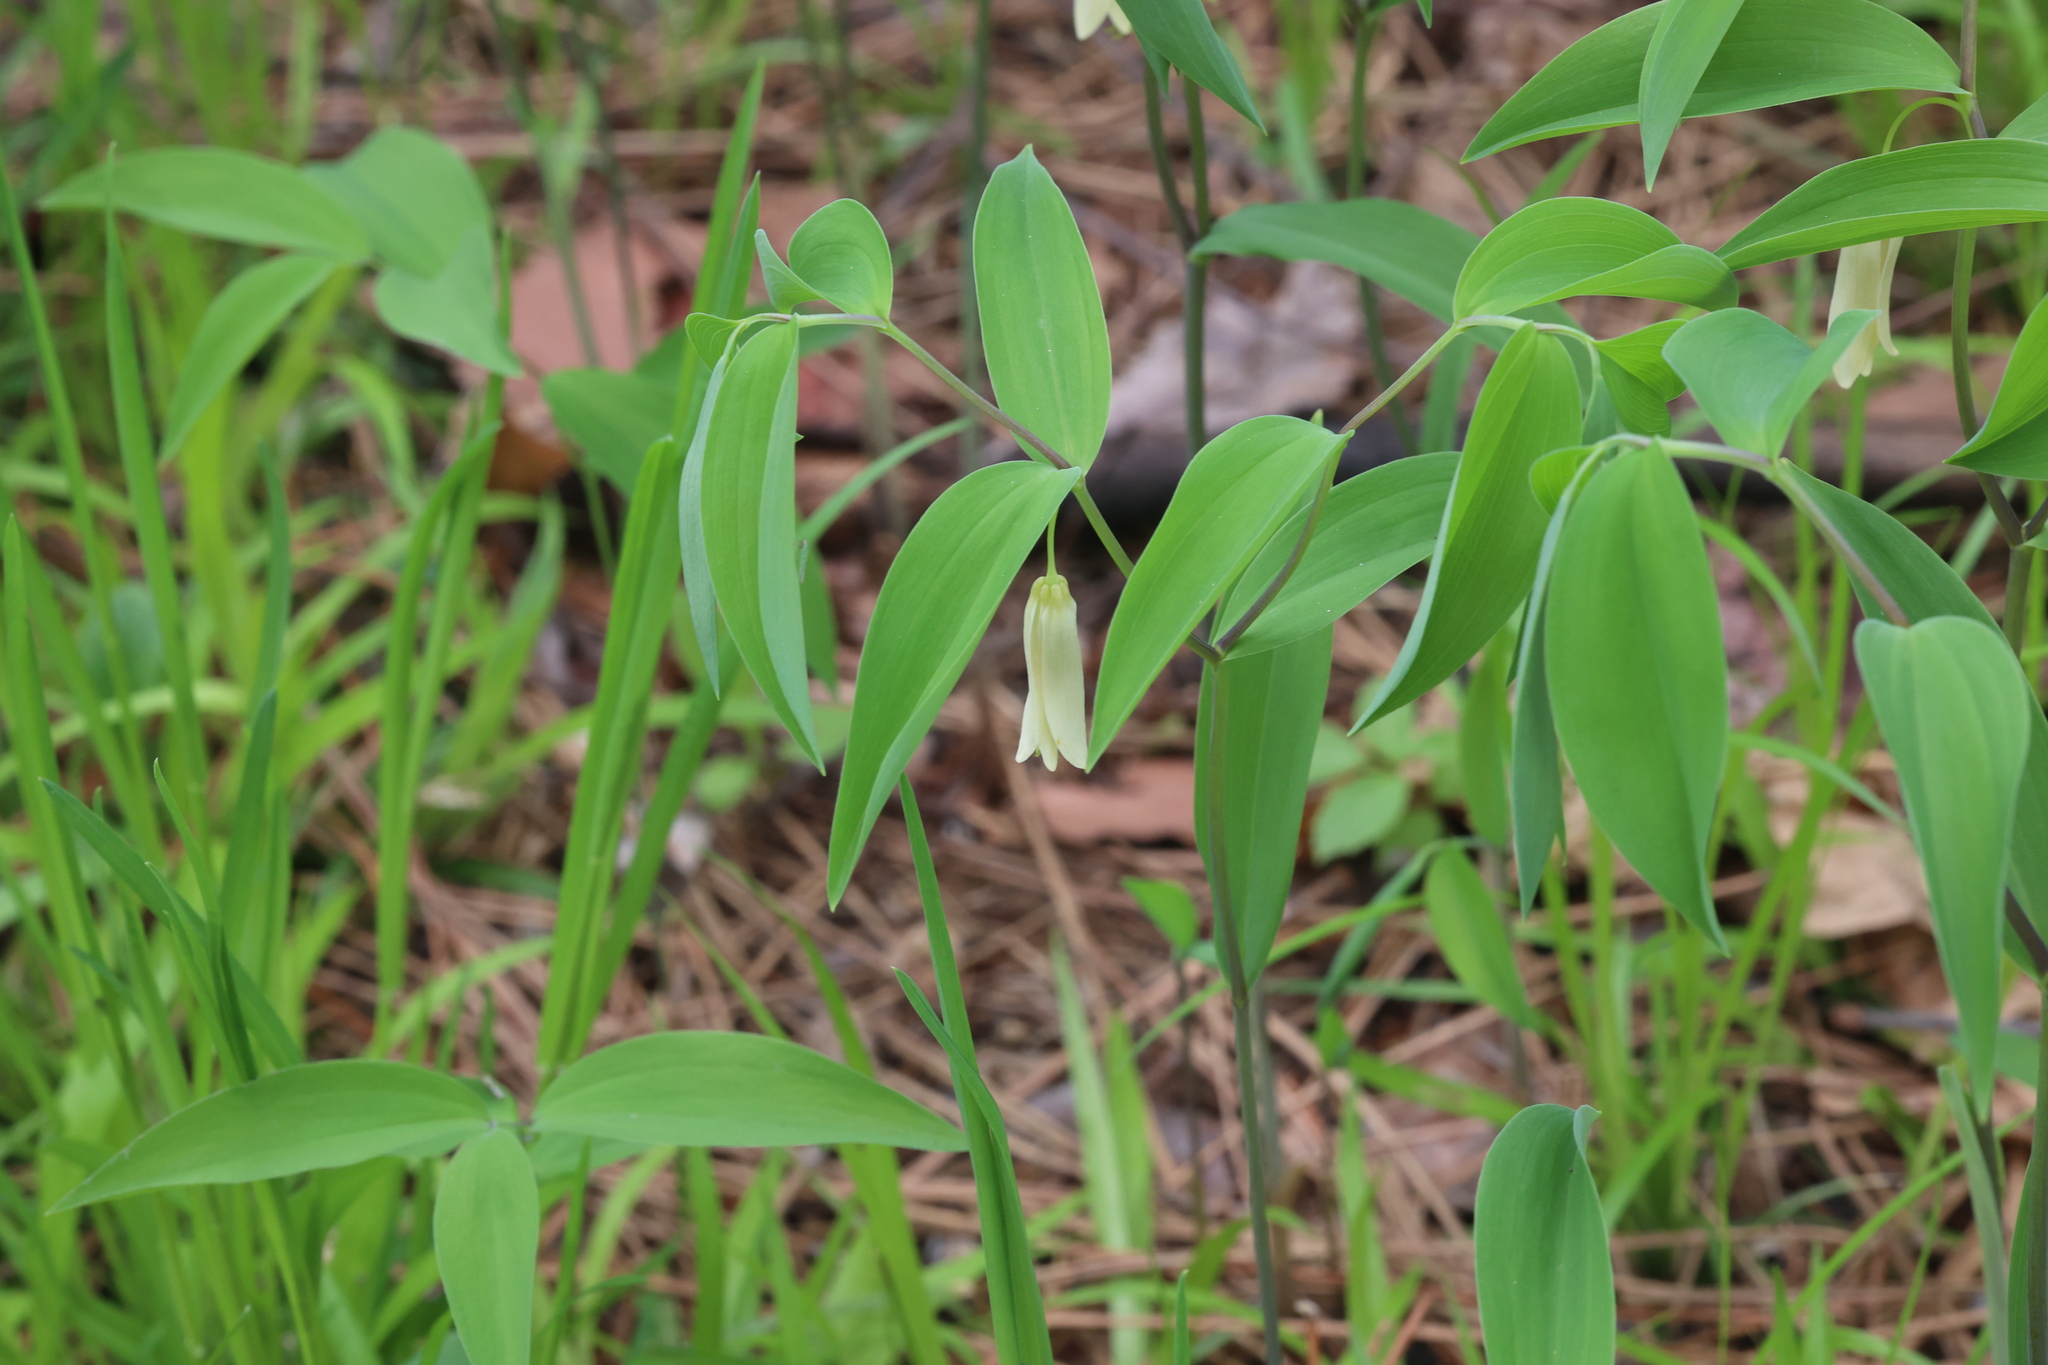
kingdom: Plantae
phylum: Tracheophyta
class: Liliopsida
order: Liliales
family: Colchicaceae
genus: Uvularia
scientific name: Uvularia sessilifolia
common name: Straw-lily
